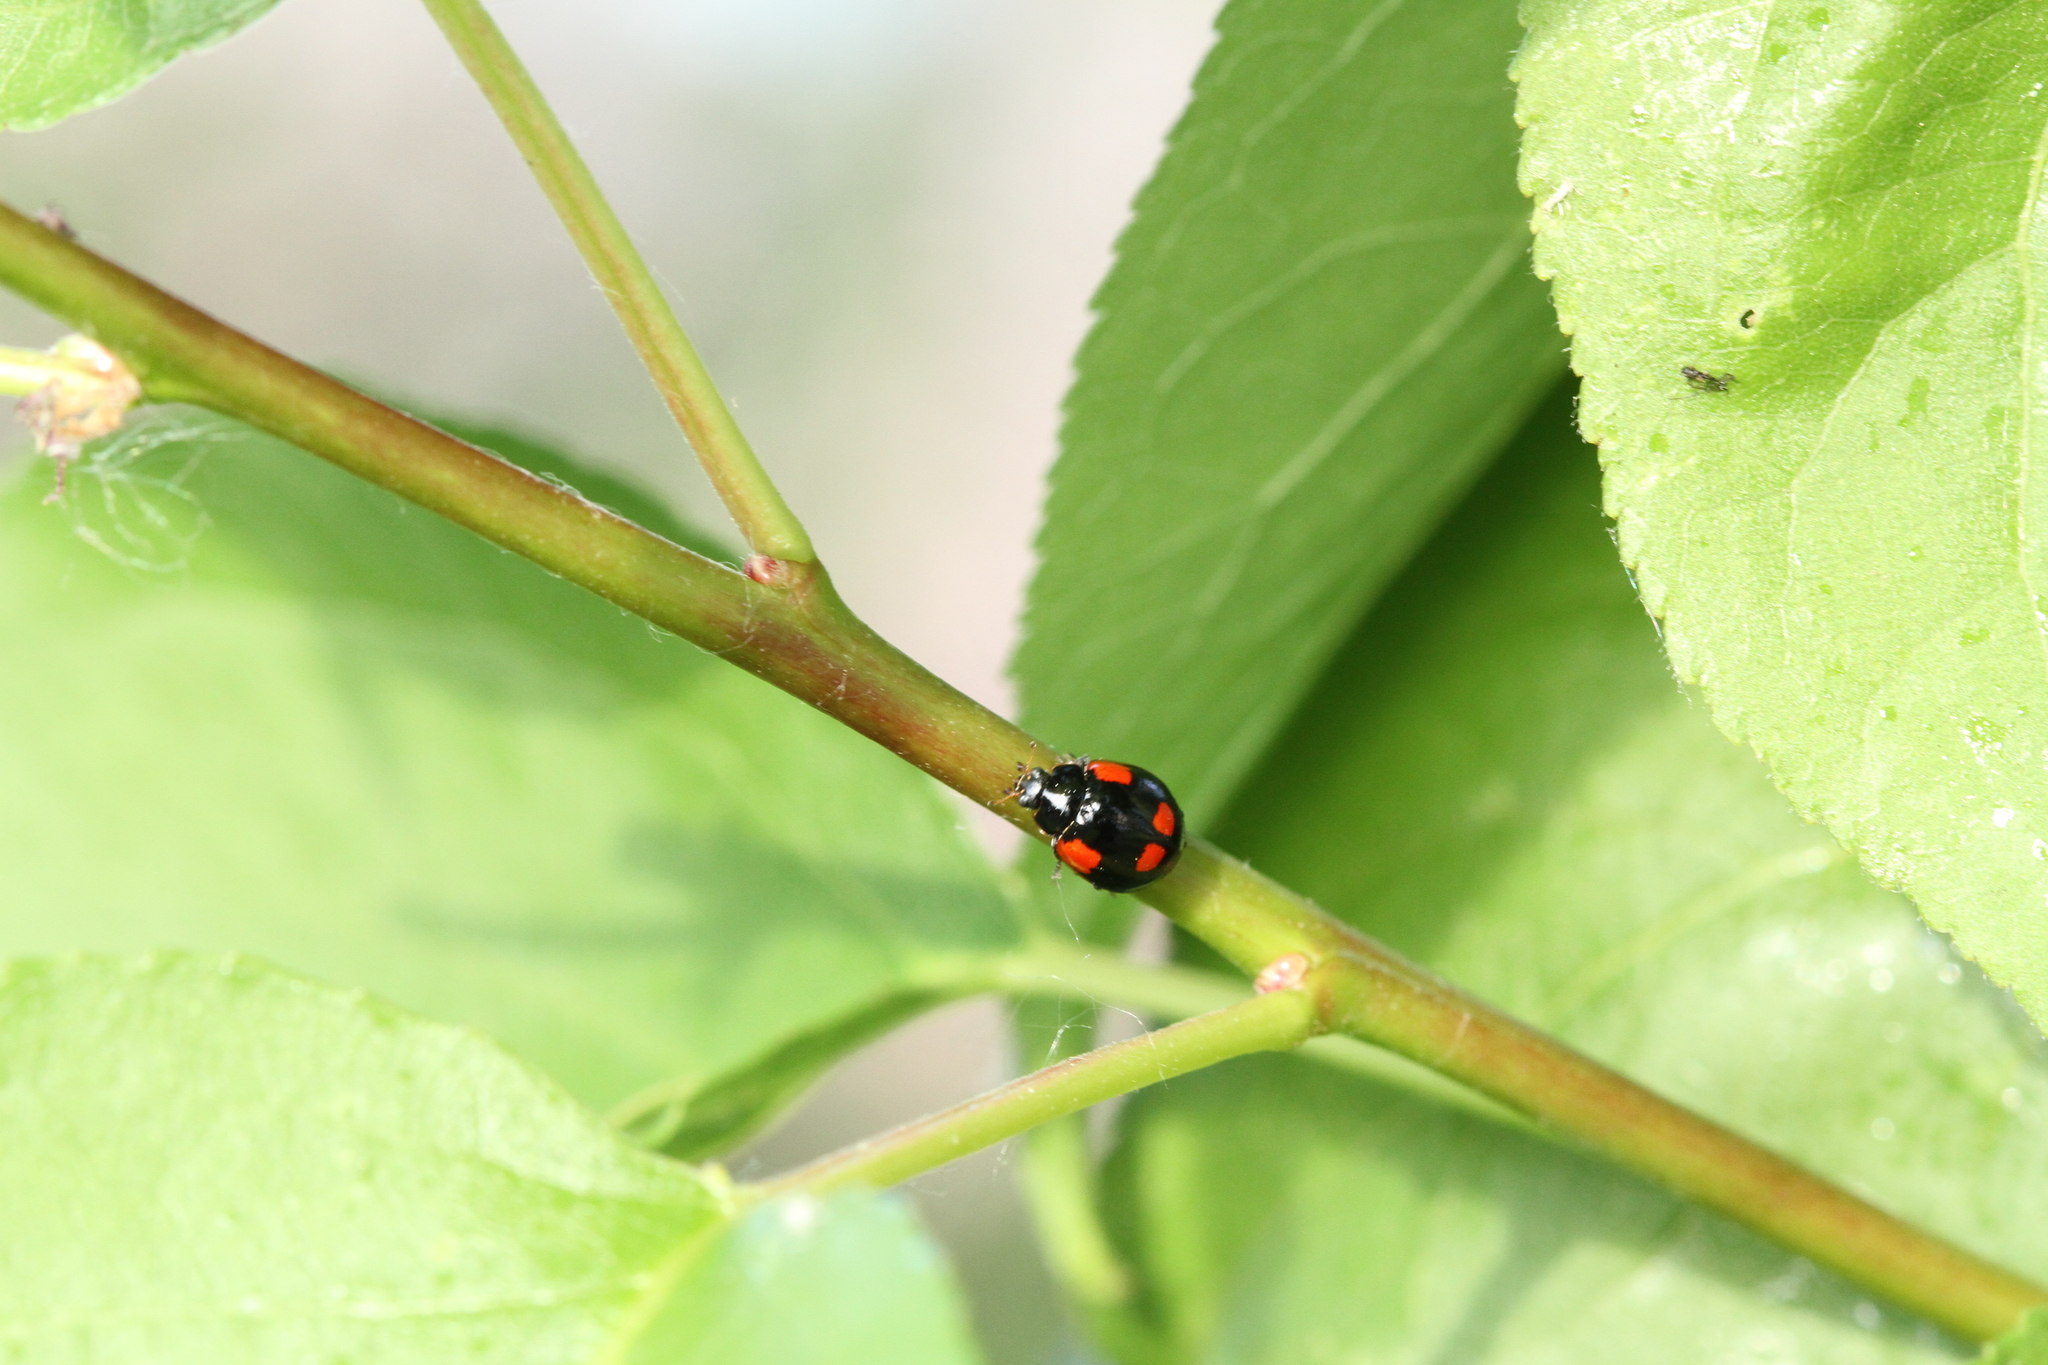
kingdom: Animalia
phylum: Arthropoda
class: Insecta
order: Coleoptera
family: Coccinellidae
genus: Adalia
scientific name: Adalia bipunctata
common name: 2-spot ladybird
